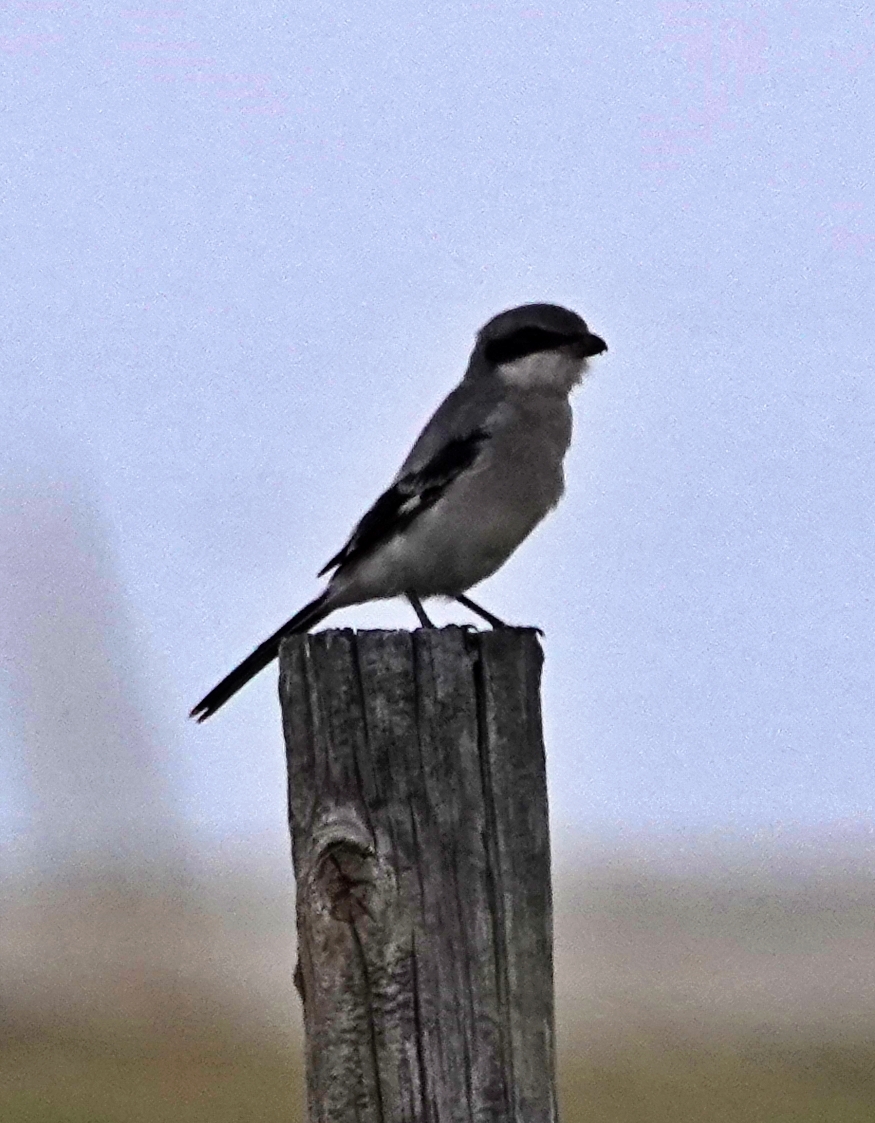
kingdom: Animalia
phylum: Chordata
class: Aves
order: Passeriformes
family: Laniidae
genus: Lanius
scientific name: Lanius ludovicianus
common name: Loggerhead shrike
